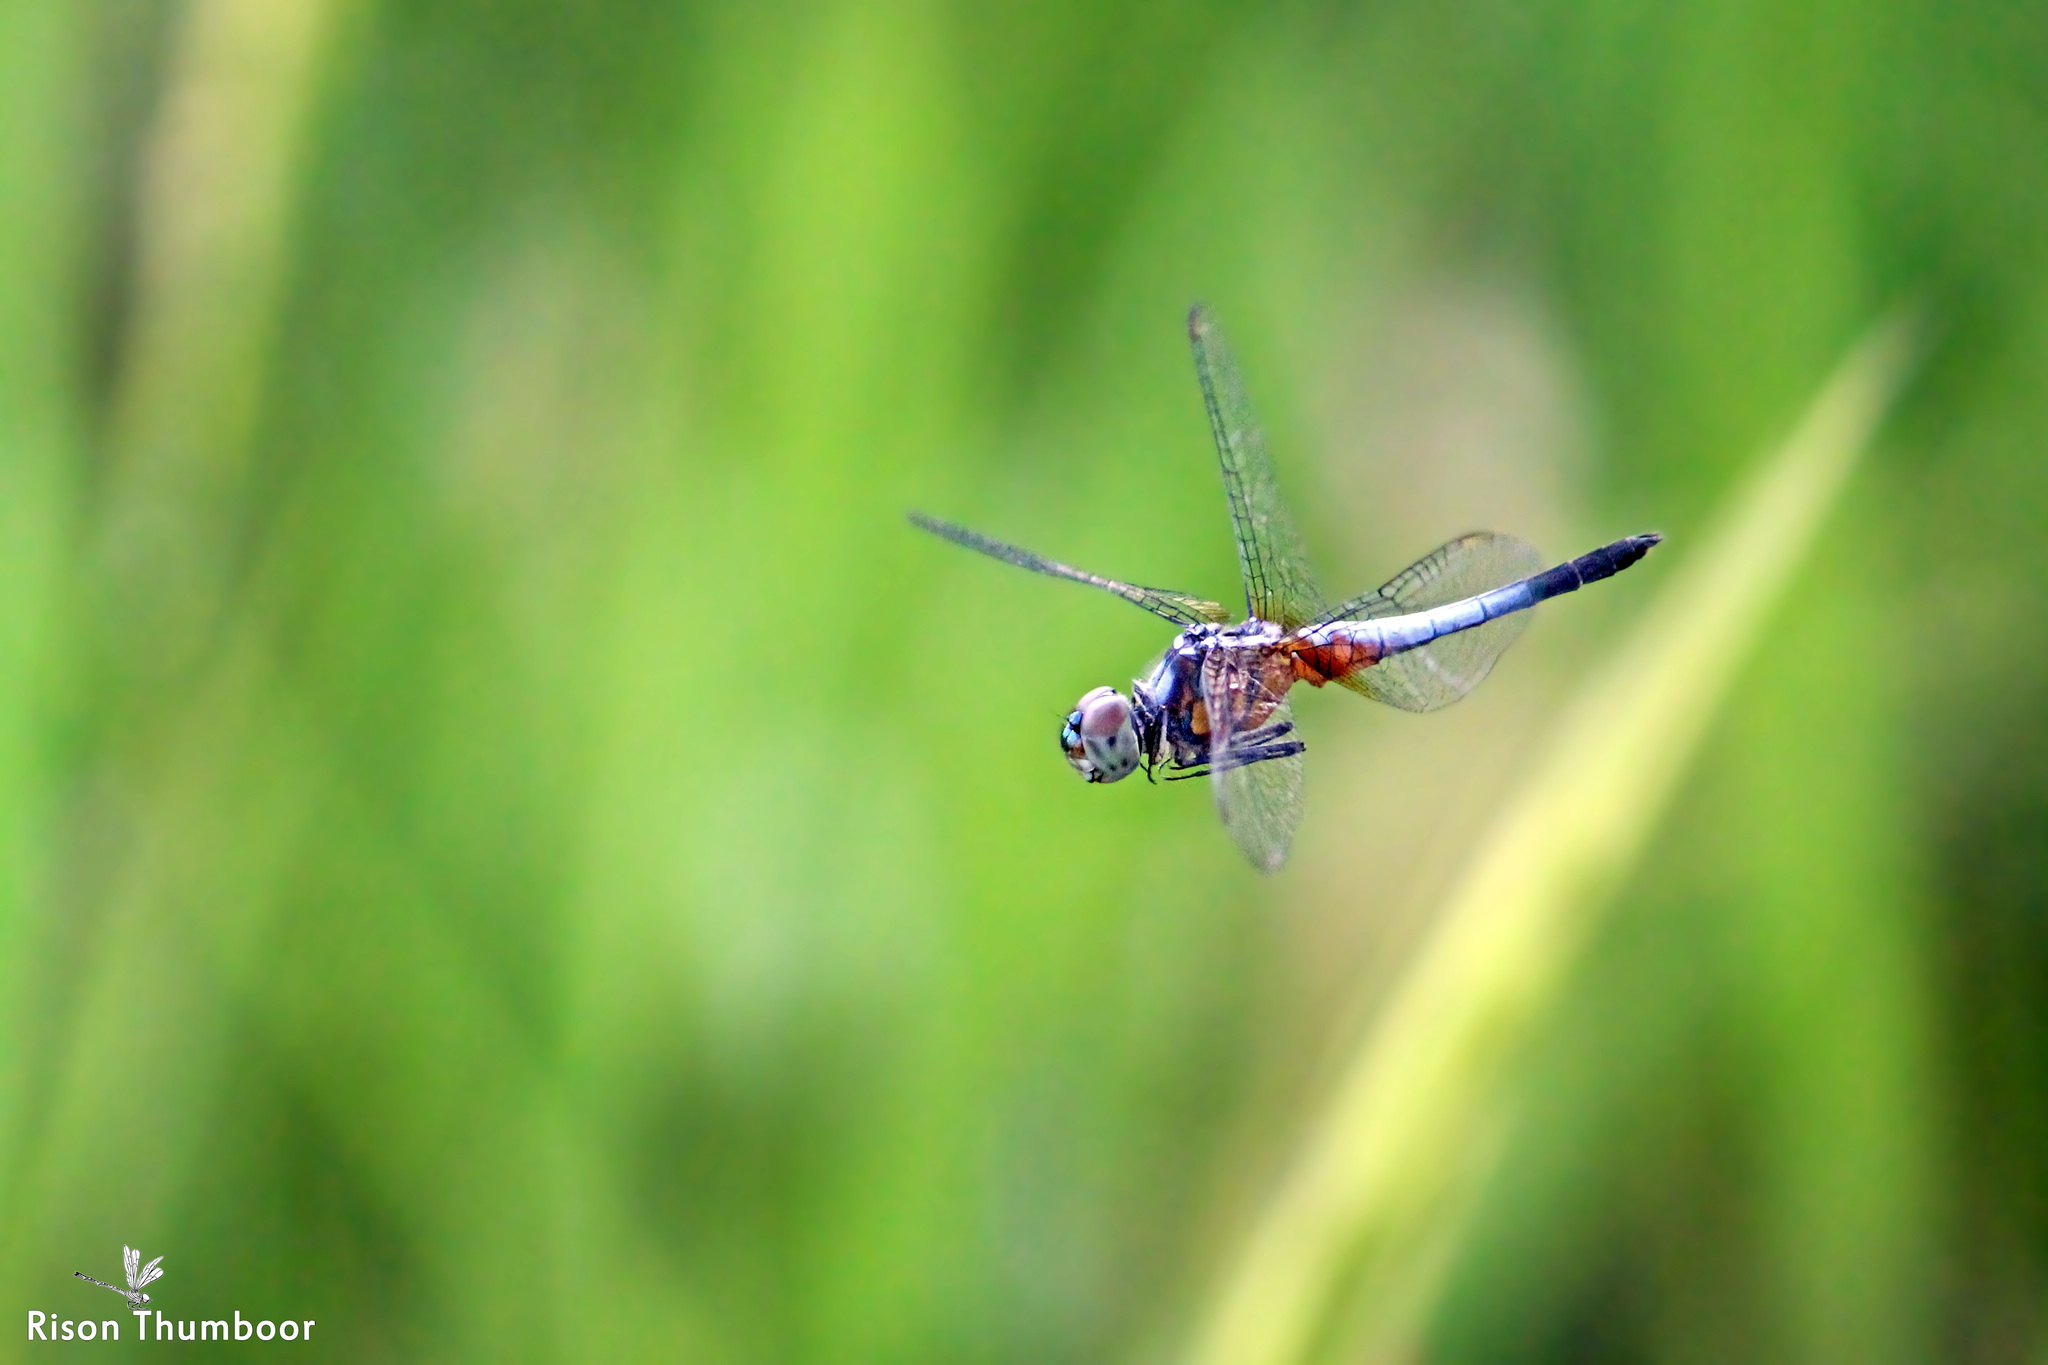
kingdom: Animalia
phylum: Arthropoda
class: Insecta
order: Odonata
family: Libellulidae
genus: Brachydiplax
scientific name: Brachydiplax chalybea
